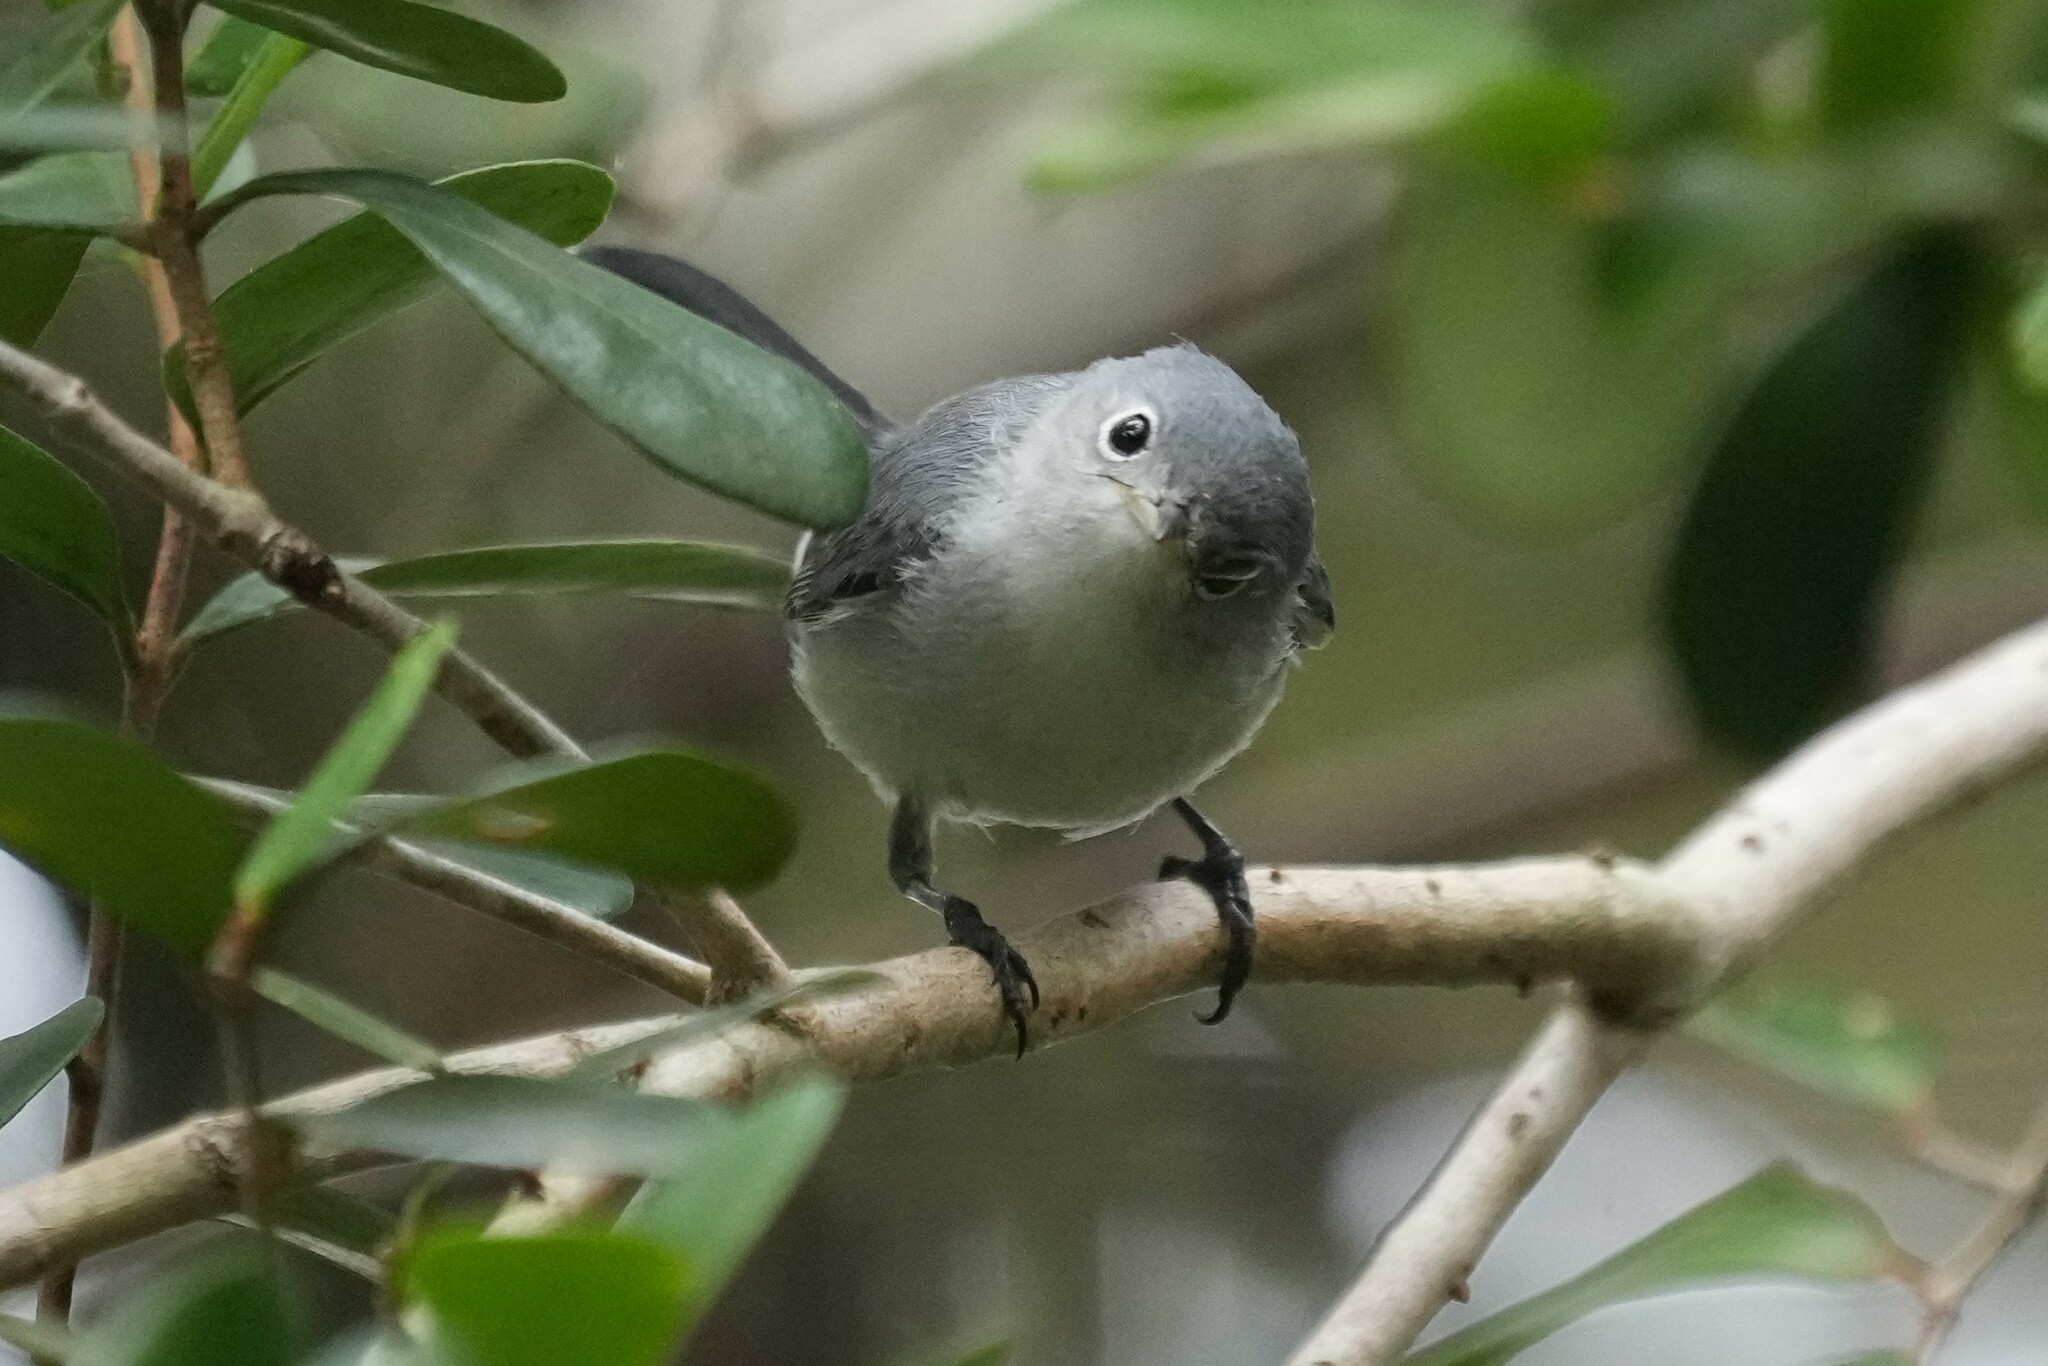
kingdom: Animalia
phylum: Chordata
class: Aves
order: Passeriformes
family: Polioptilidae
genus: Polioptila
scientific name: Polioptila caerulea
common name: Blue-gray gnatcatcher
